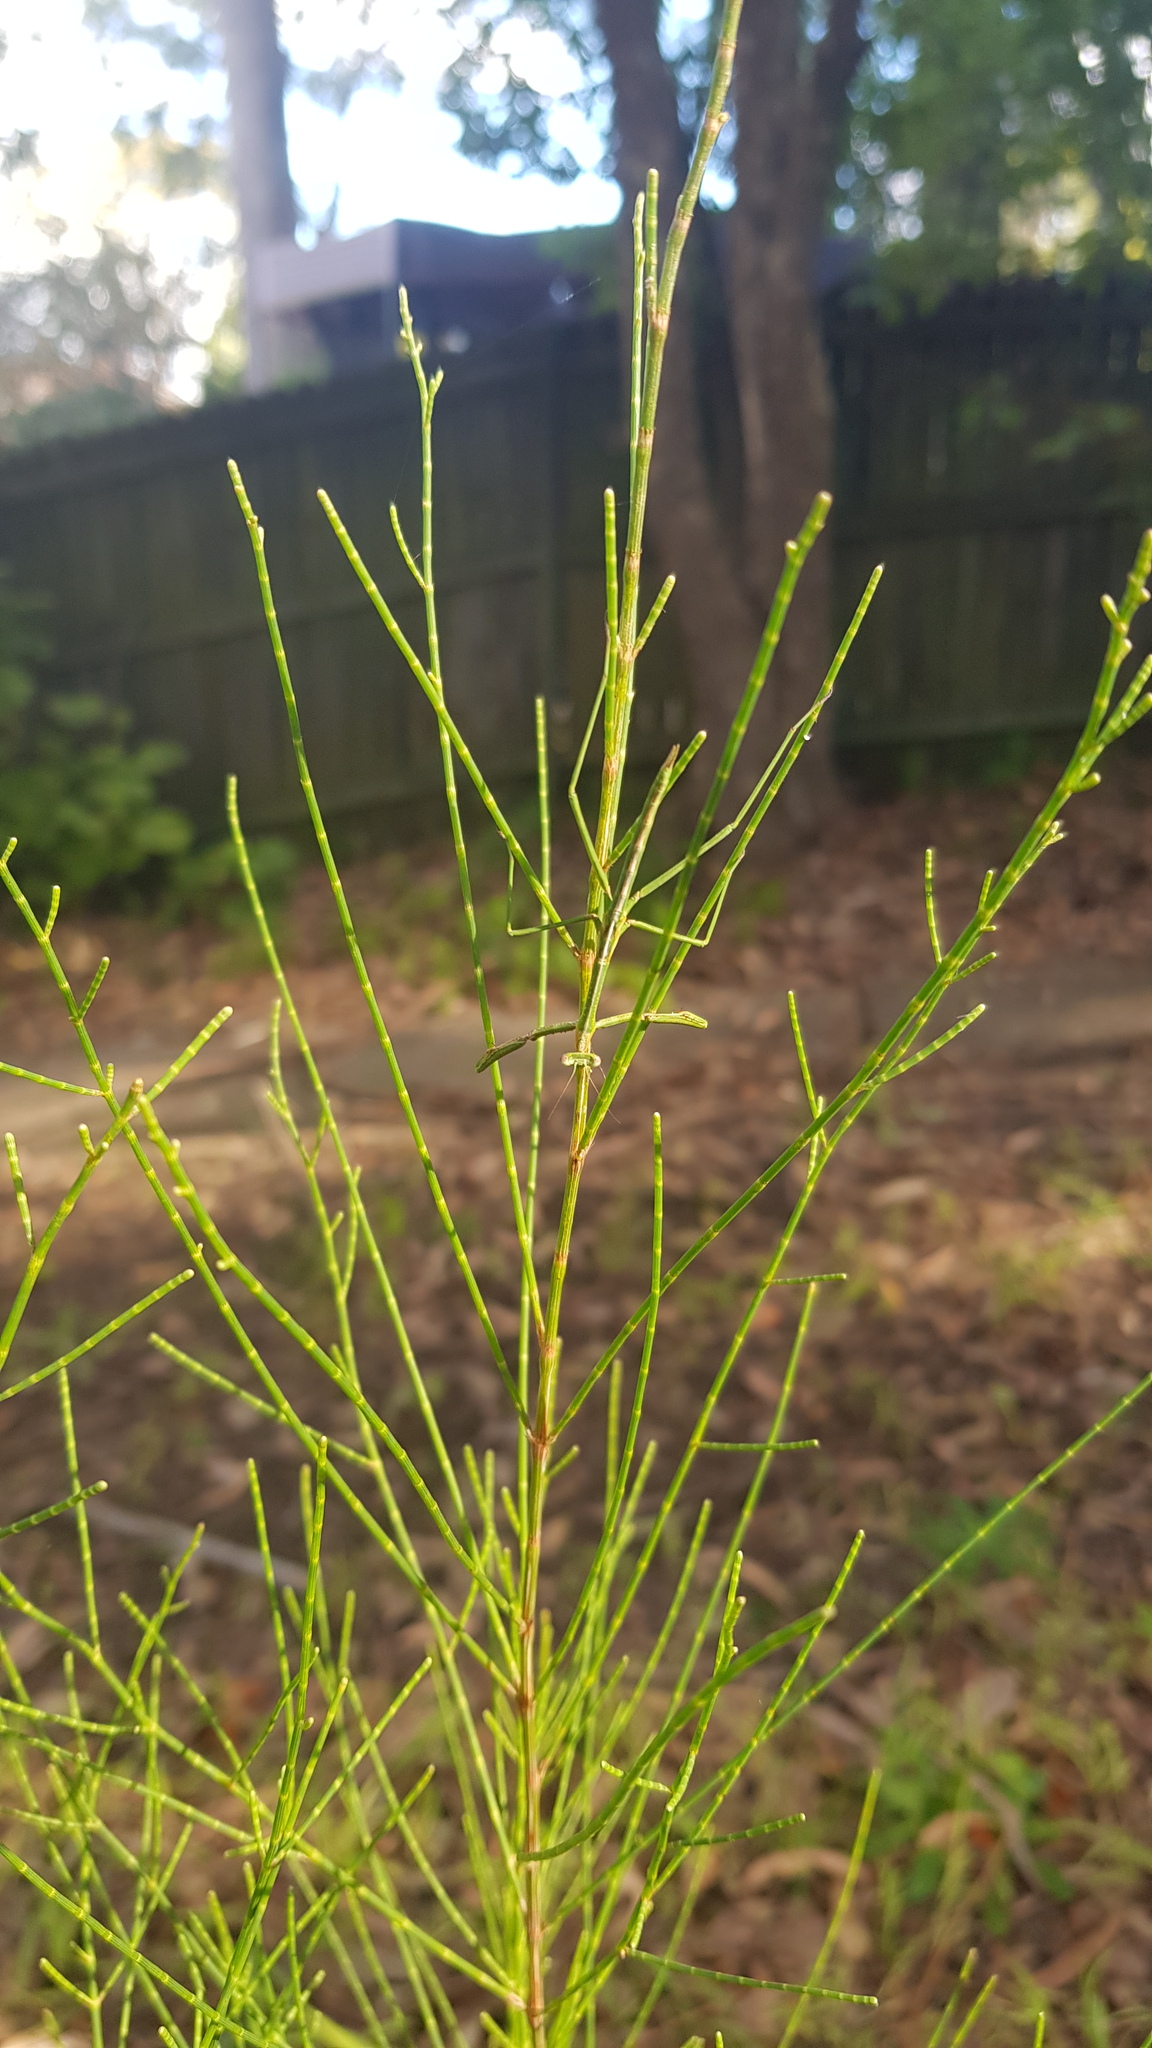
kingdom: Animalia
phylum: Arthropoda
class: Insecta
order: Mantodea
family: Mantidae
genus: Archimantis
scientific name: Archimantis latistyla
